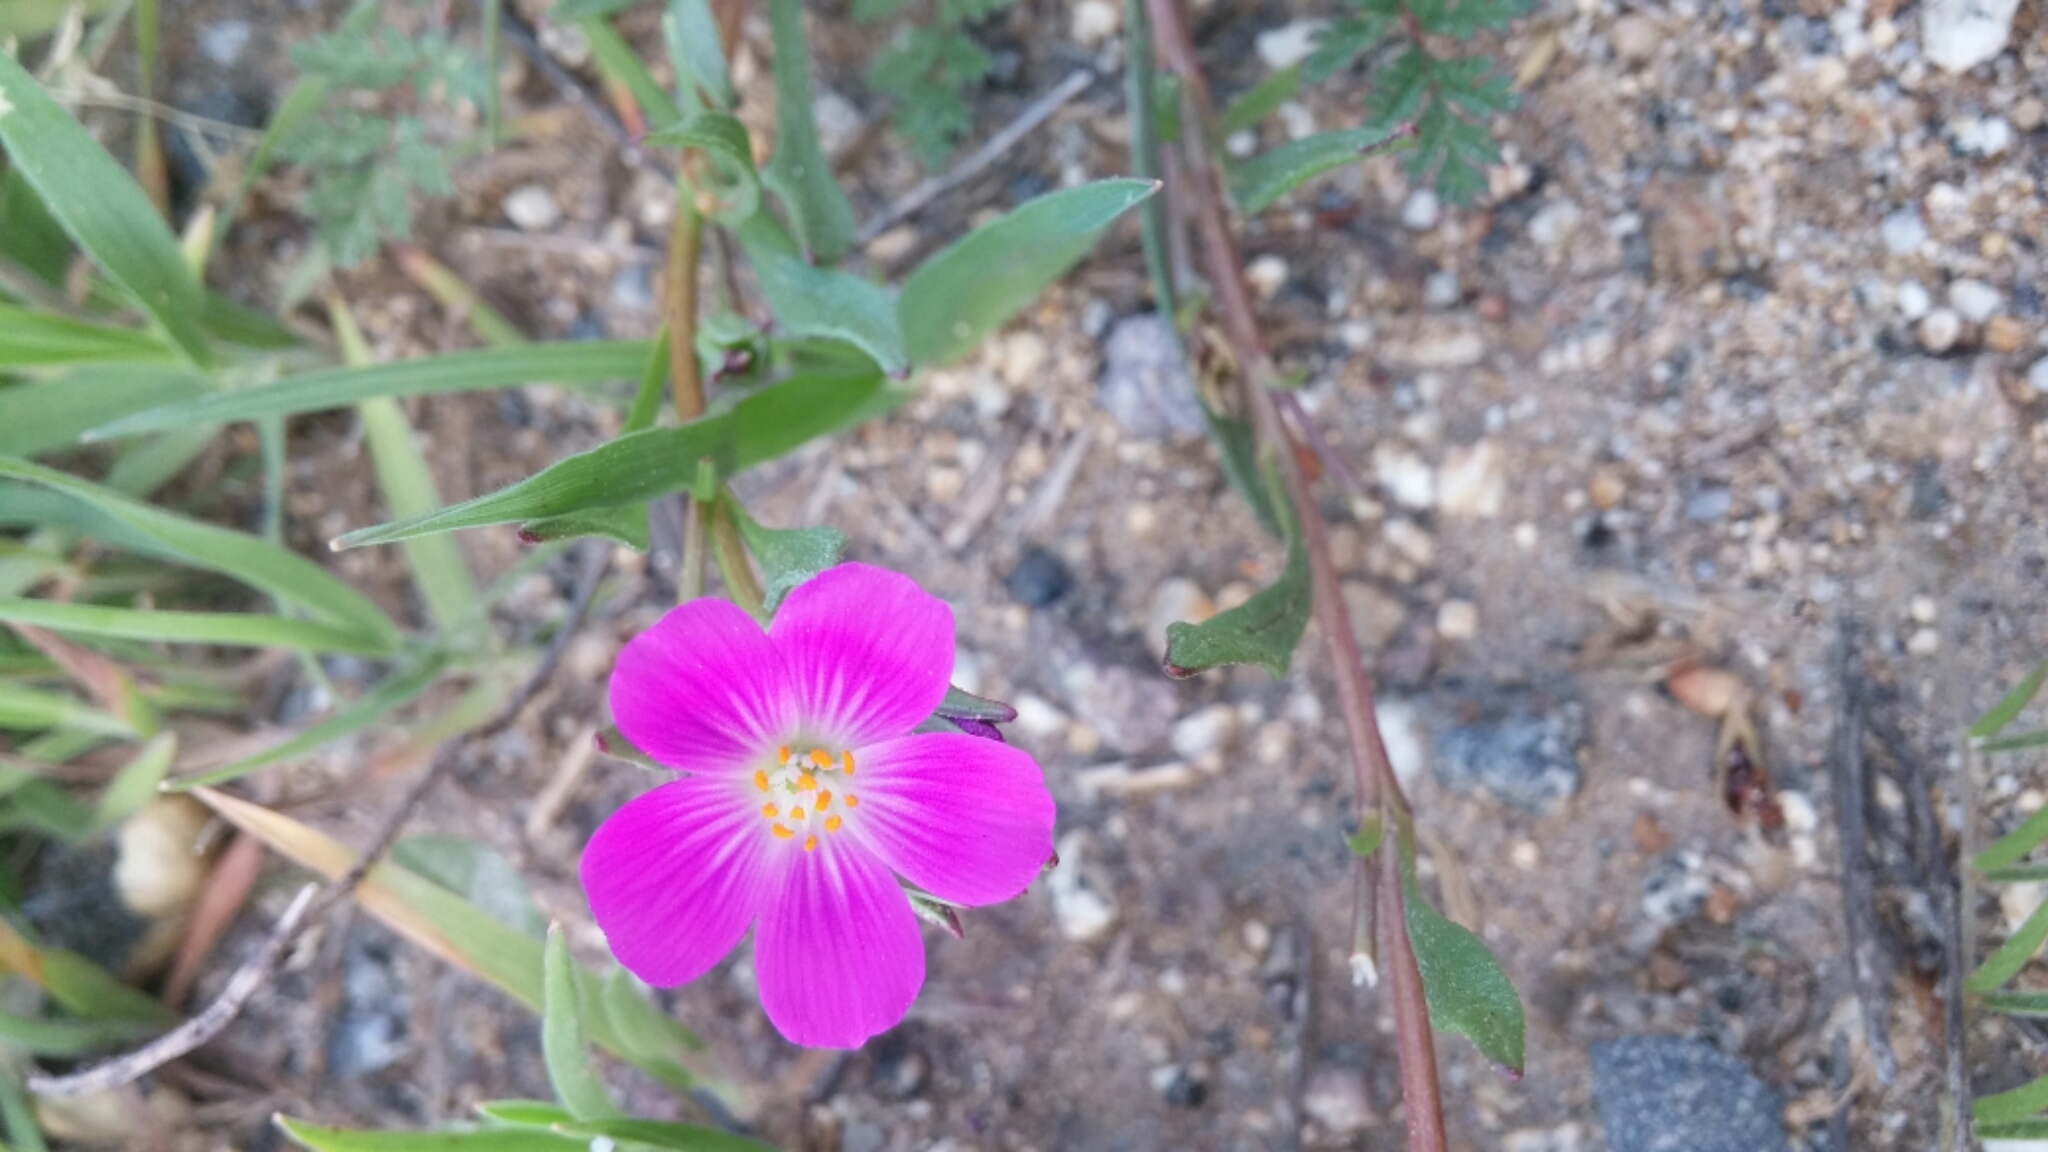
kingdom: Plantae
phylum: Tracheophyta
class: Magnoliopsida
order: Caryophyllales
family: Montiaceae
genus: Calandrinia
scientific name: Calandrinia menziesii
